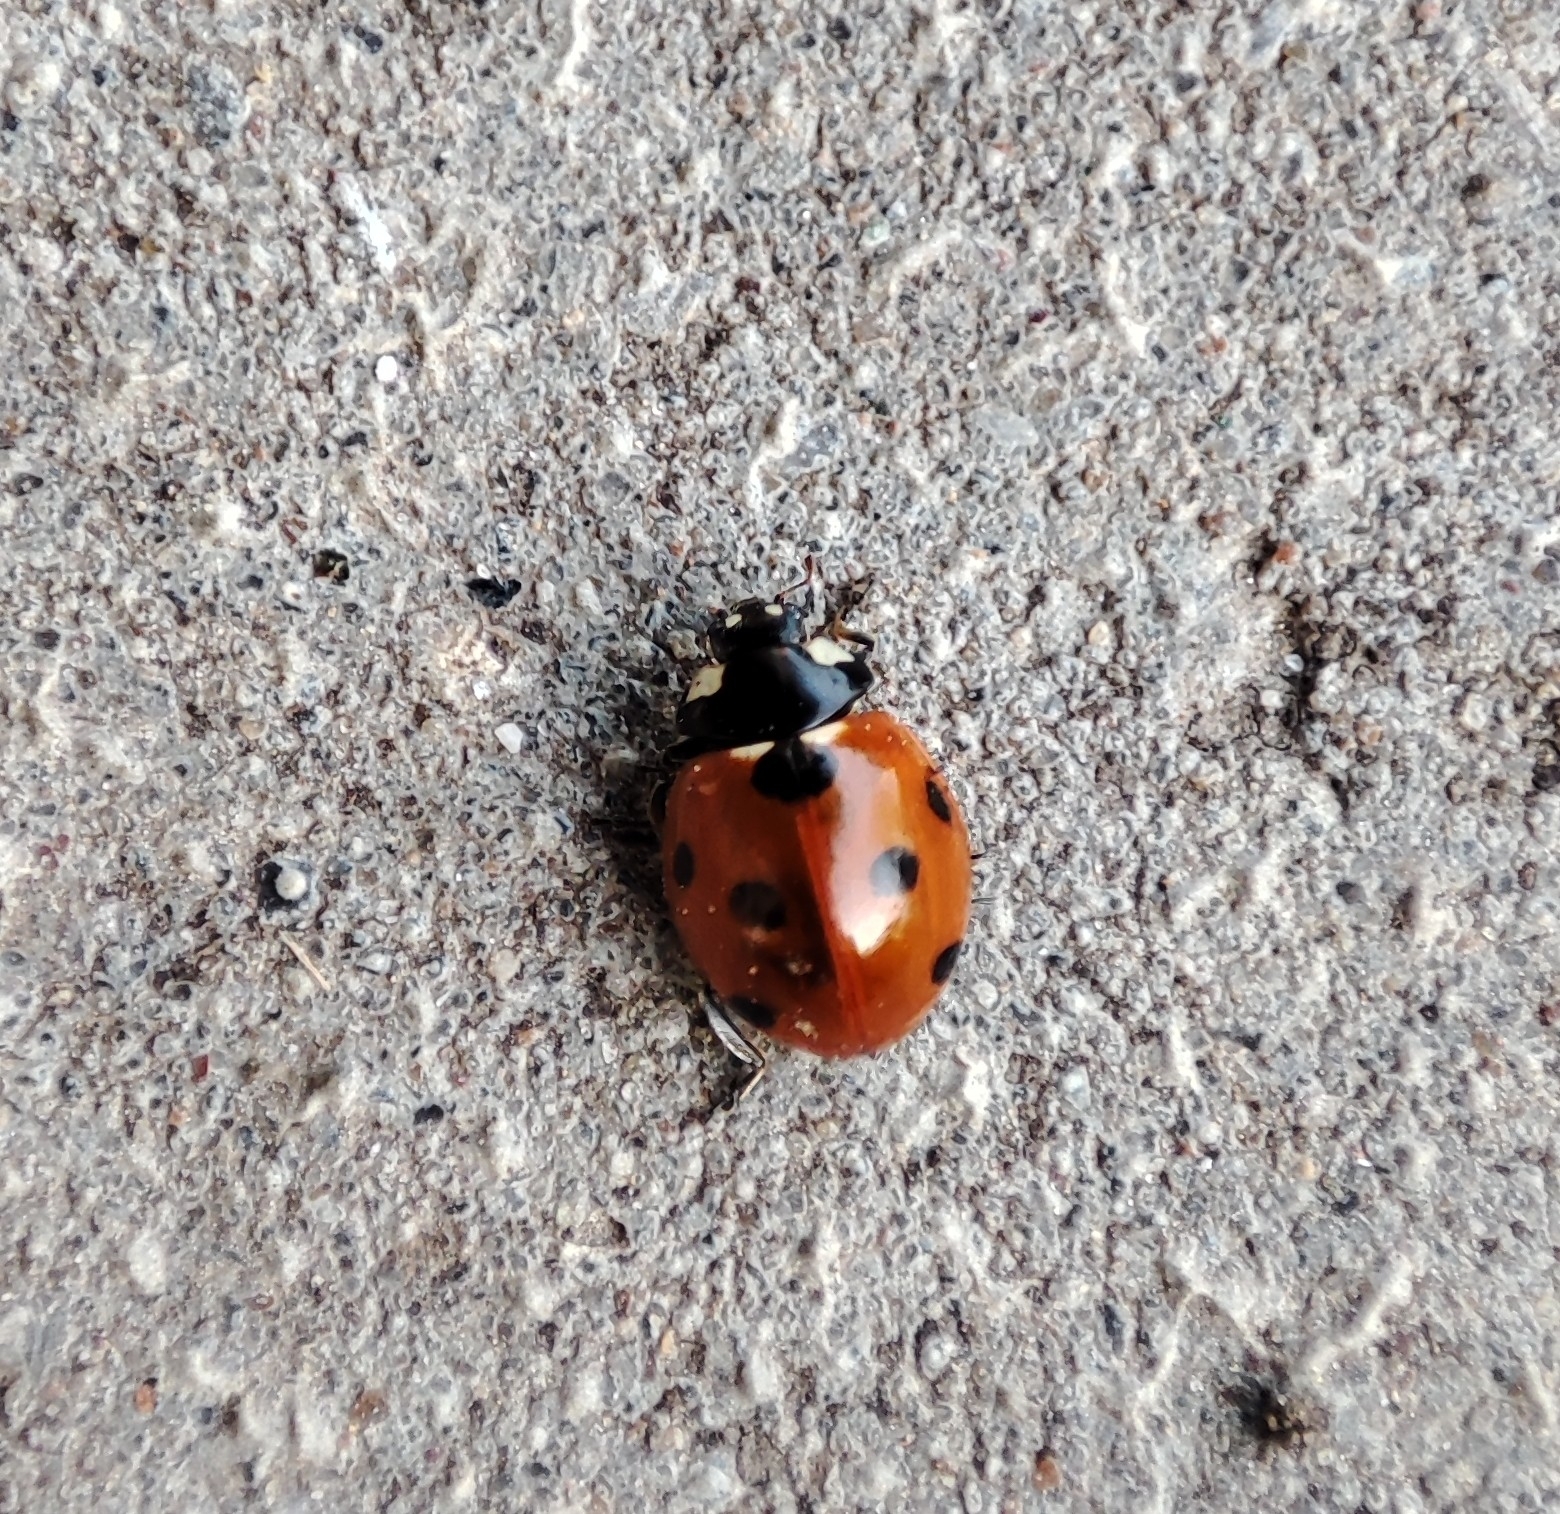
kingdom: Animalia
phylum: Arthropoda
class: Insecta
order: Coleoptera
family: Coccinellidae
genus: Coccinella
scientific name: Coccinella septempunctata
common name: Sevenspotted lady beetle
